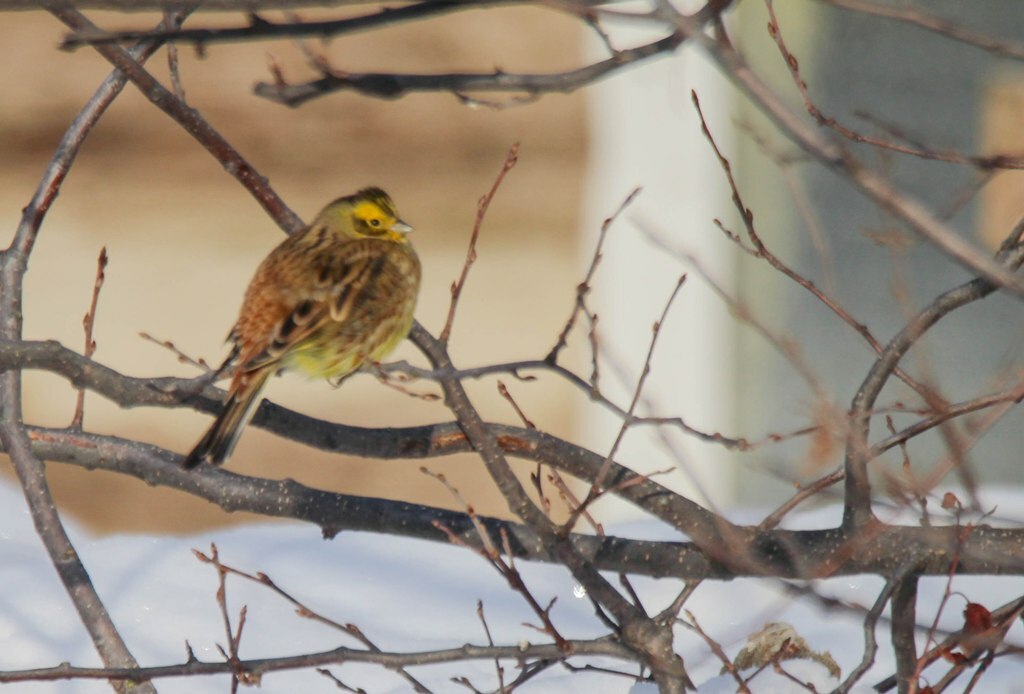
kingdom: Animalia
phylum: Chordata
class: Aves
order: Passeriformes
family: Emberizidae
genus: Emberiza
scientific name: Emberiza citrinella
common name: Yellowhammer
